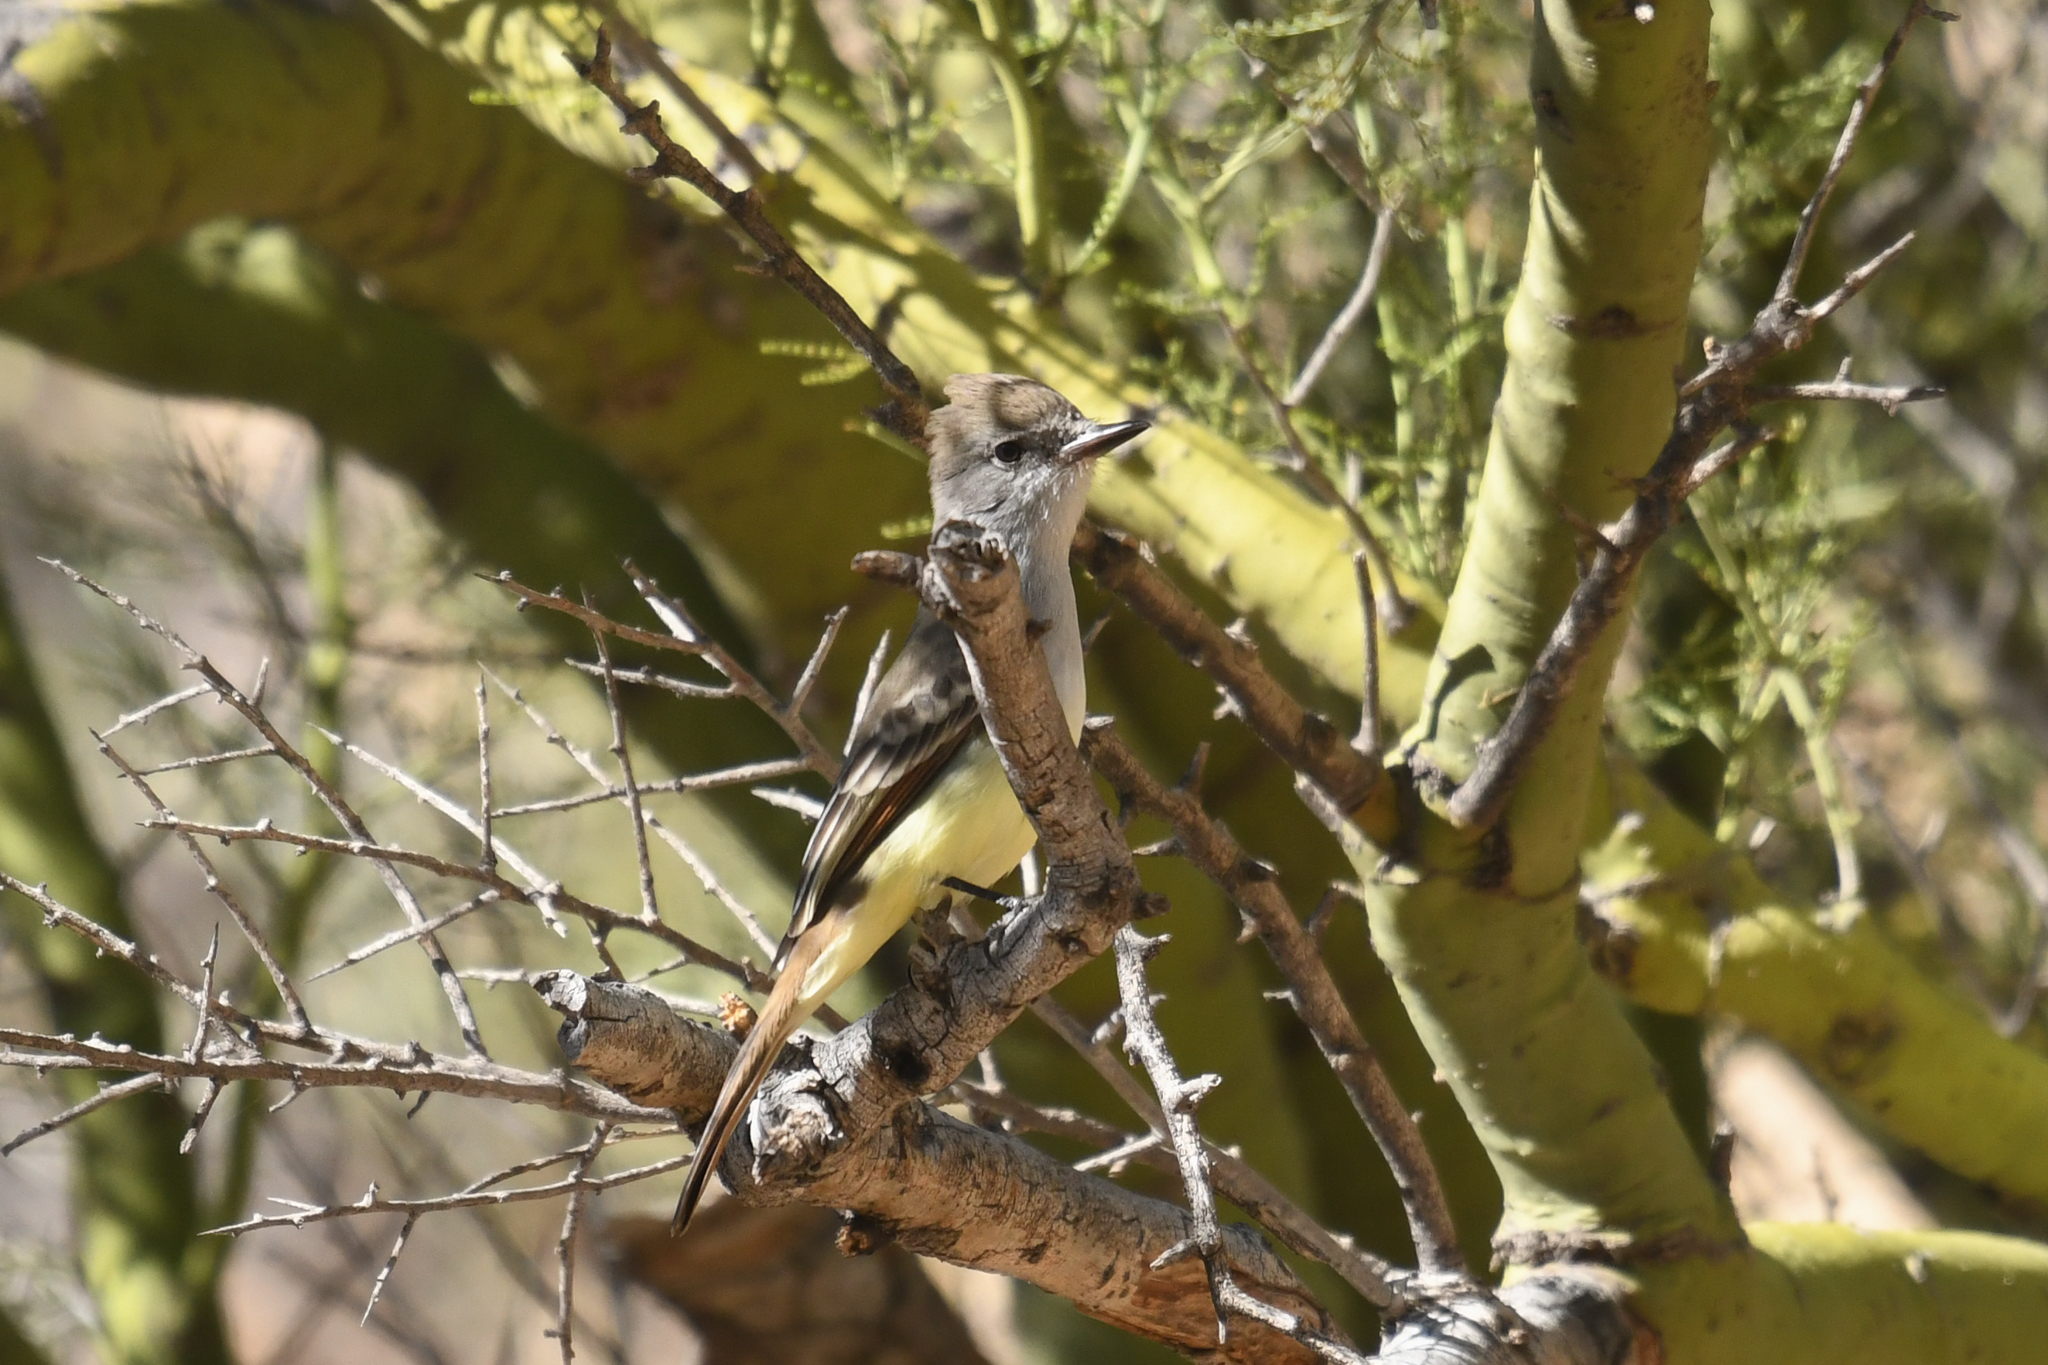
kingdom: Animalia
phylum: Chordata
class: Aves
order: Passeriformes
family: Tyrannidae
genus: Myiarchus
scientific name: Myiarchus cinerascens
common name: Ash-throated flycatcher
